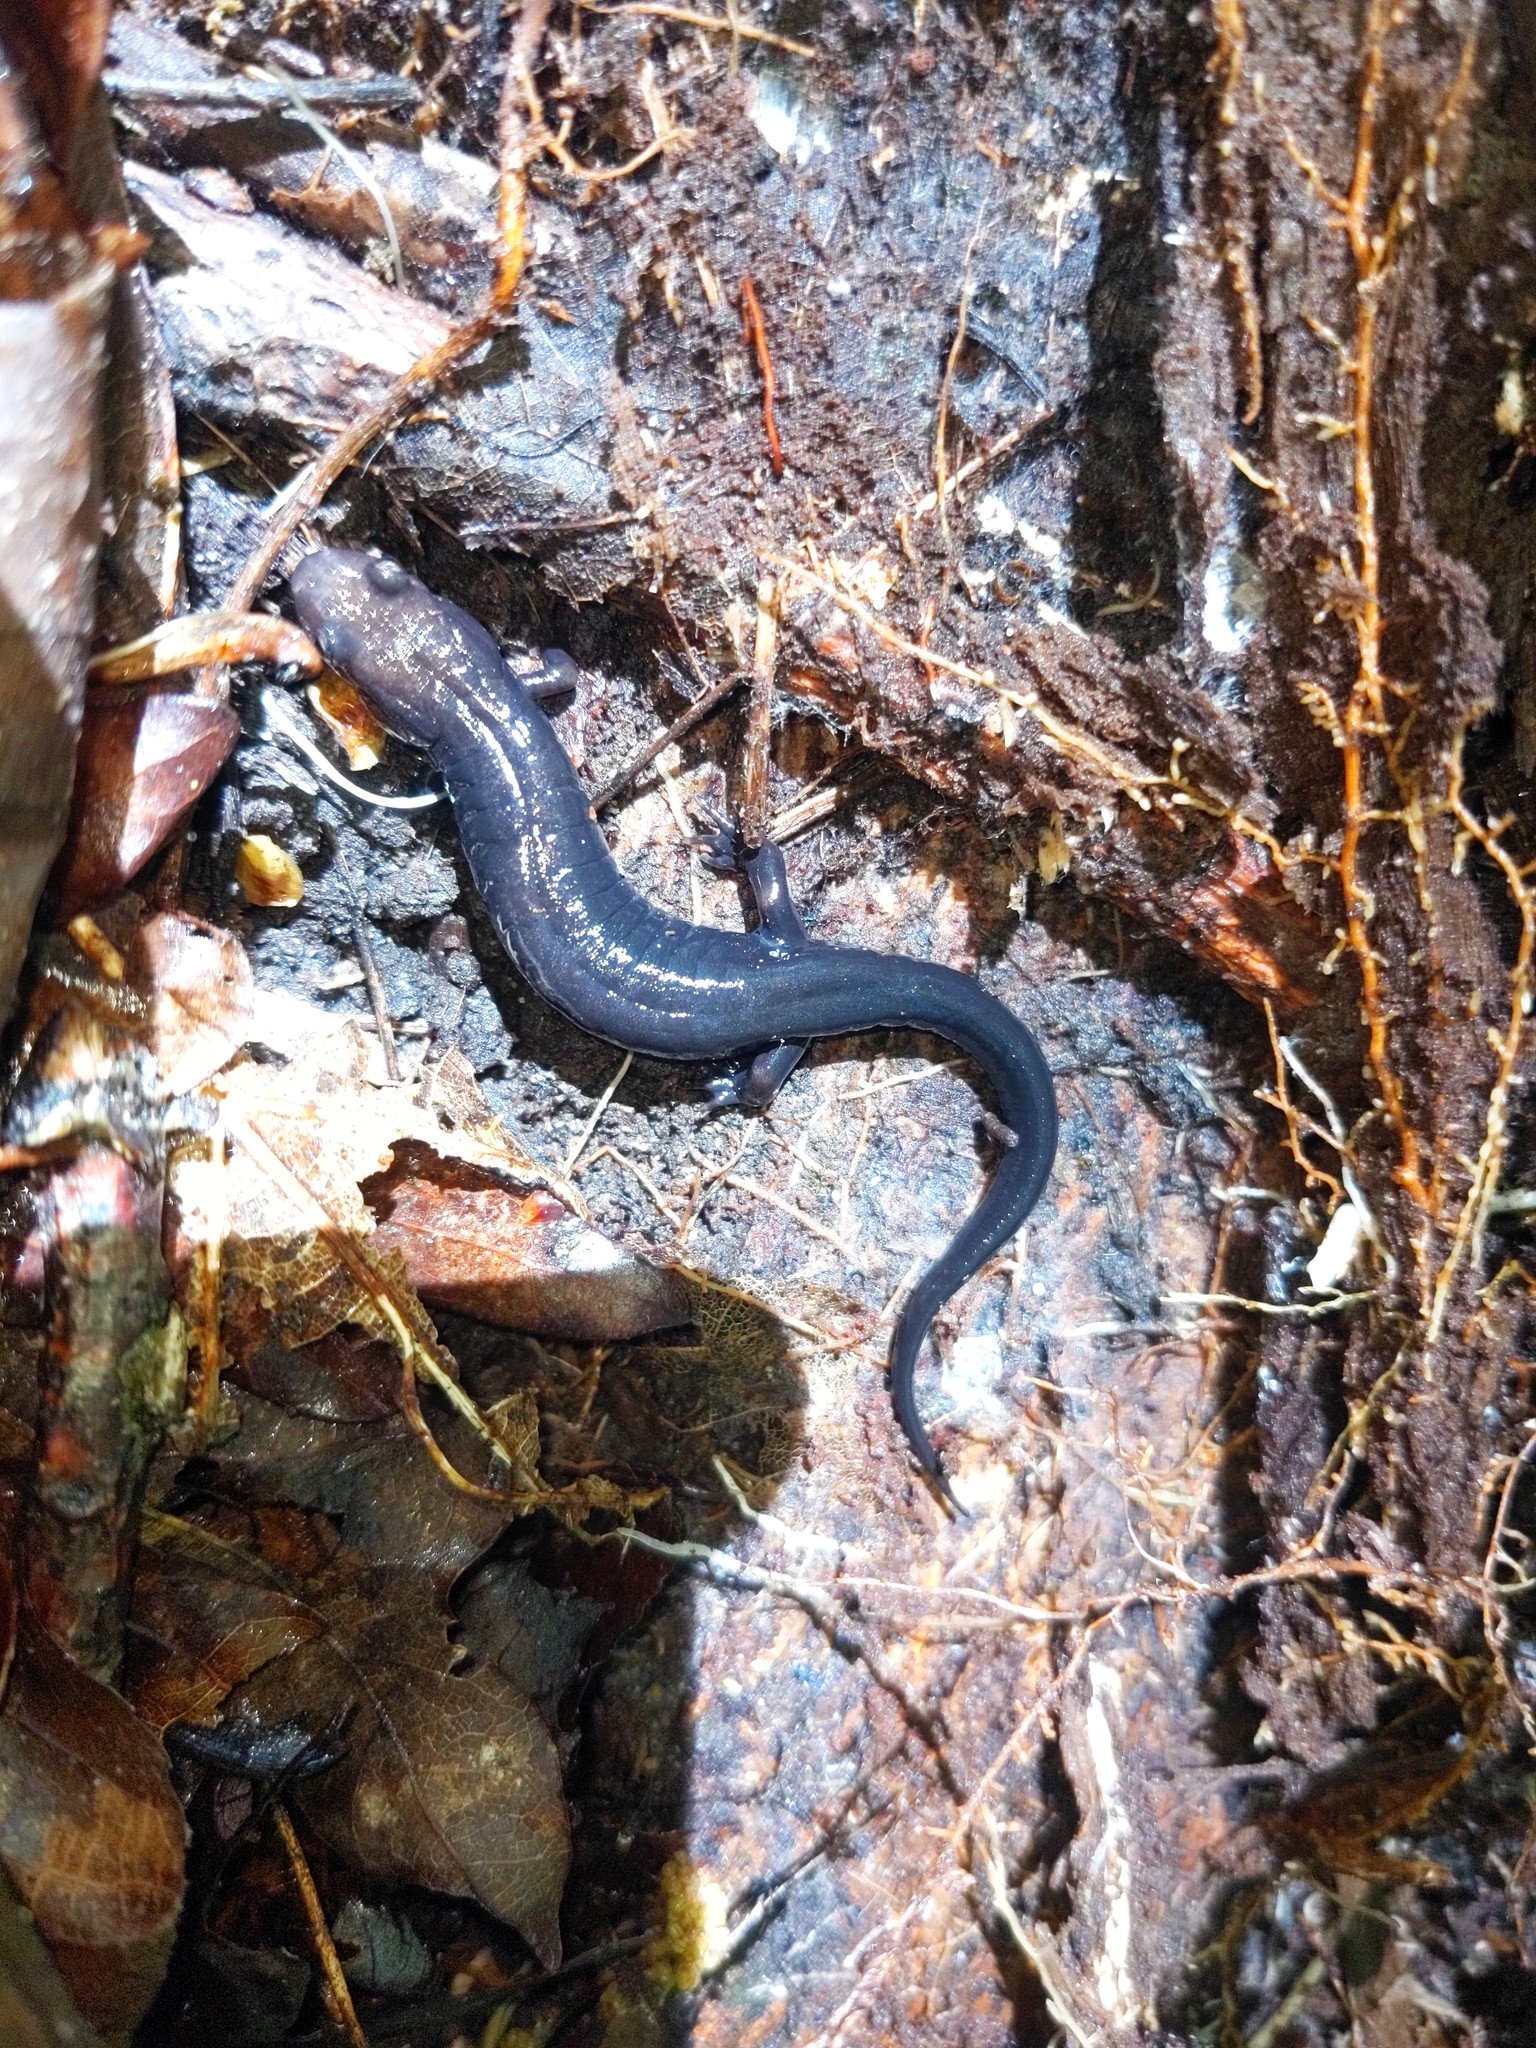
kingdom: Animalia
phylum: Chordata
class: Amphibia
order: Caudata
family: Plethodontidae
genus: Desmognathus
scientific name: Desmognathus ochrophaeus
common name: Allegheny mountain dusky salamander
